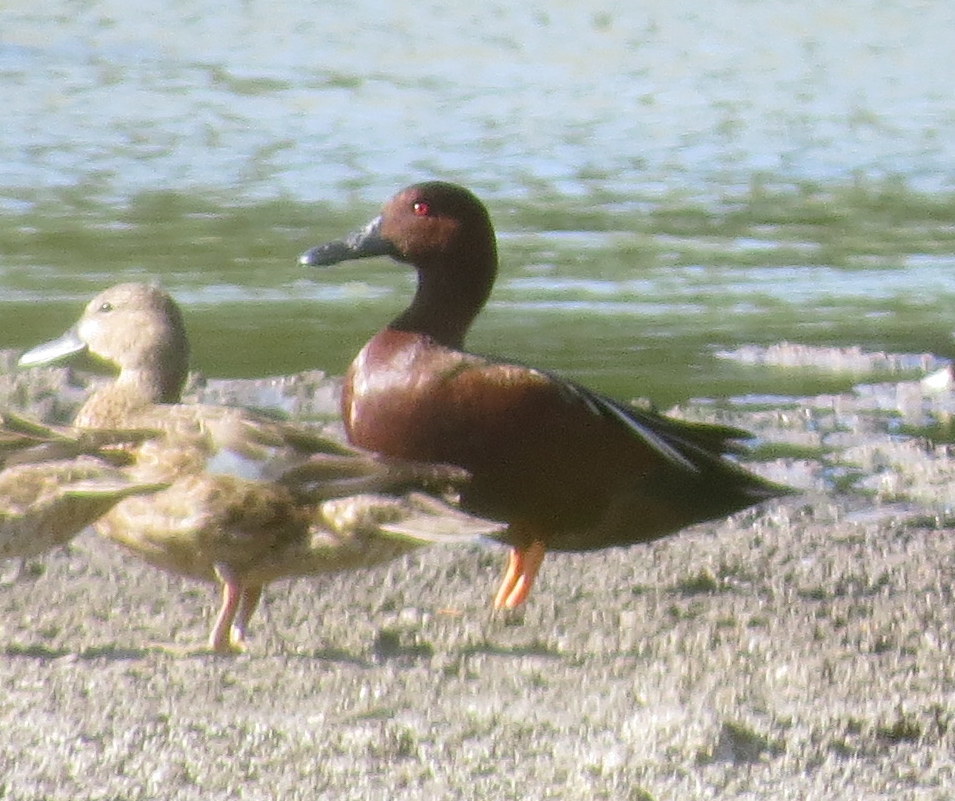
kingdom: Animalia
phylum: Chordata
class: Aves
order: Anseriformes
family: Anatidae
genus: Spatula
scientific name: Spatula cyanoptera
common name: Cinnamon teal
